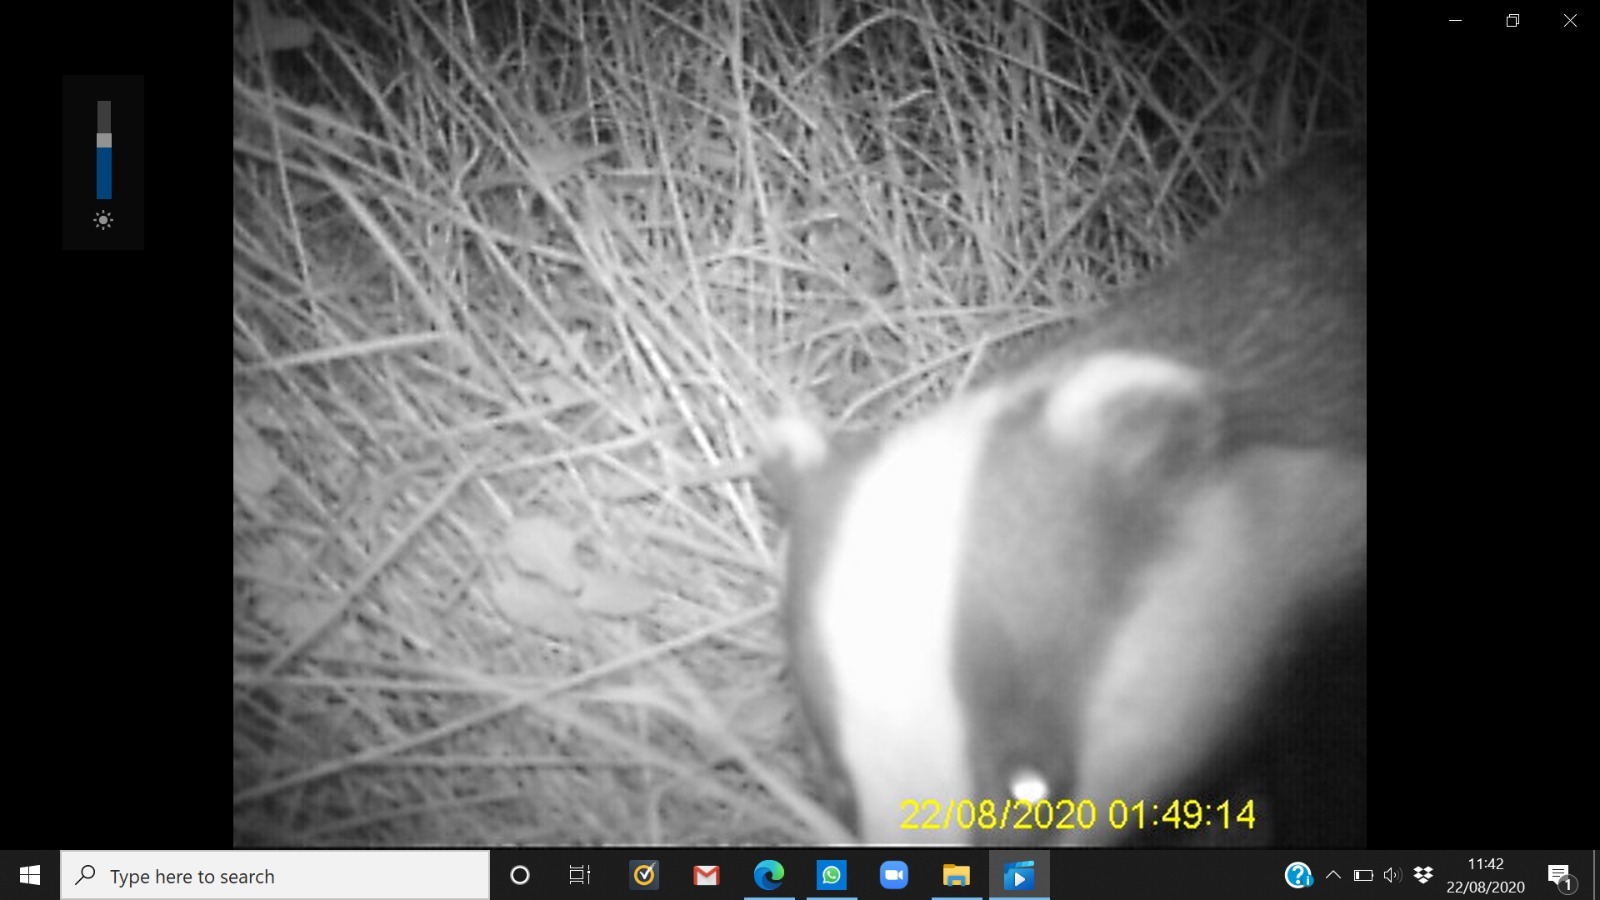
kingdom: Animalia
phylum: Chordata
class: Mammalia
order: Carnivora
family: Mustelidae
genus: Meles
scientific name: Meles meles
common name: Eurasian badger
